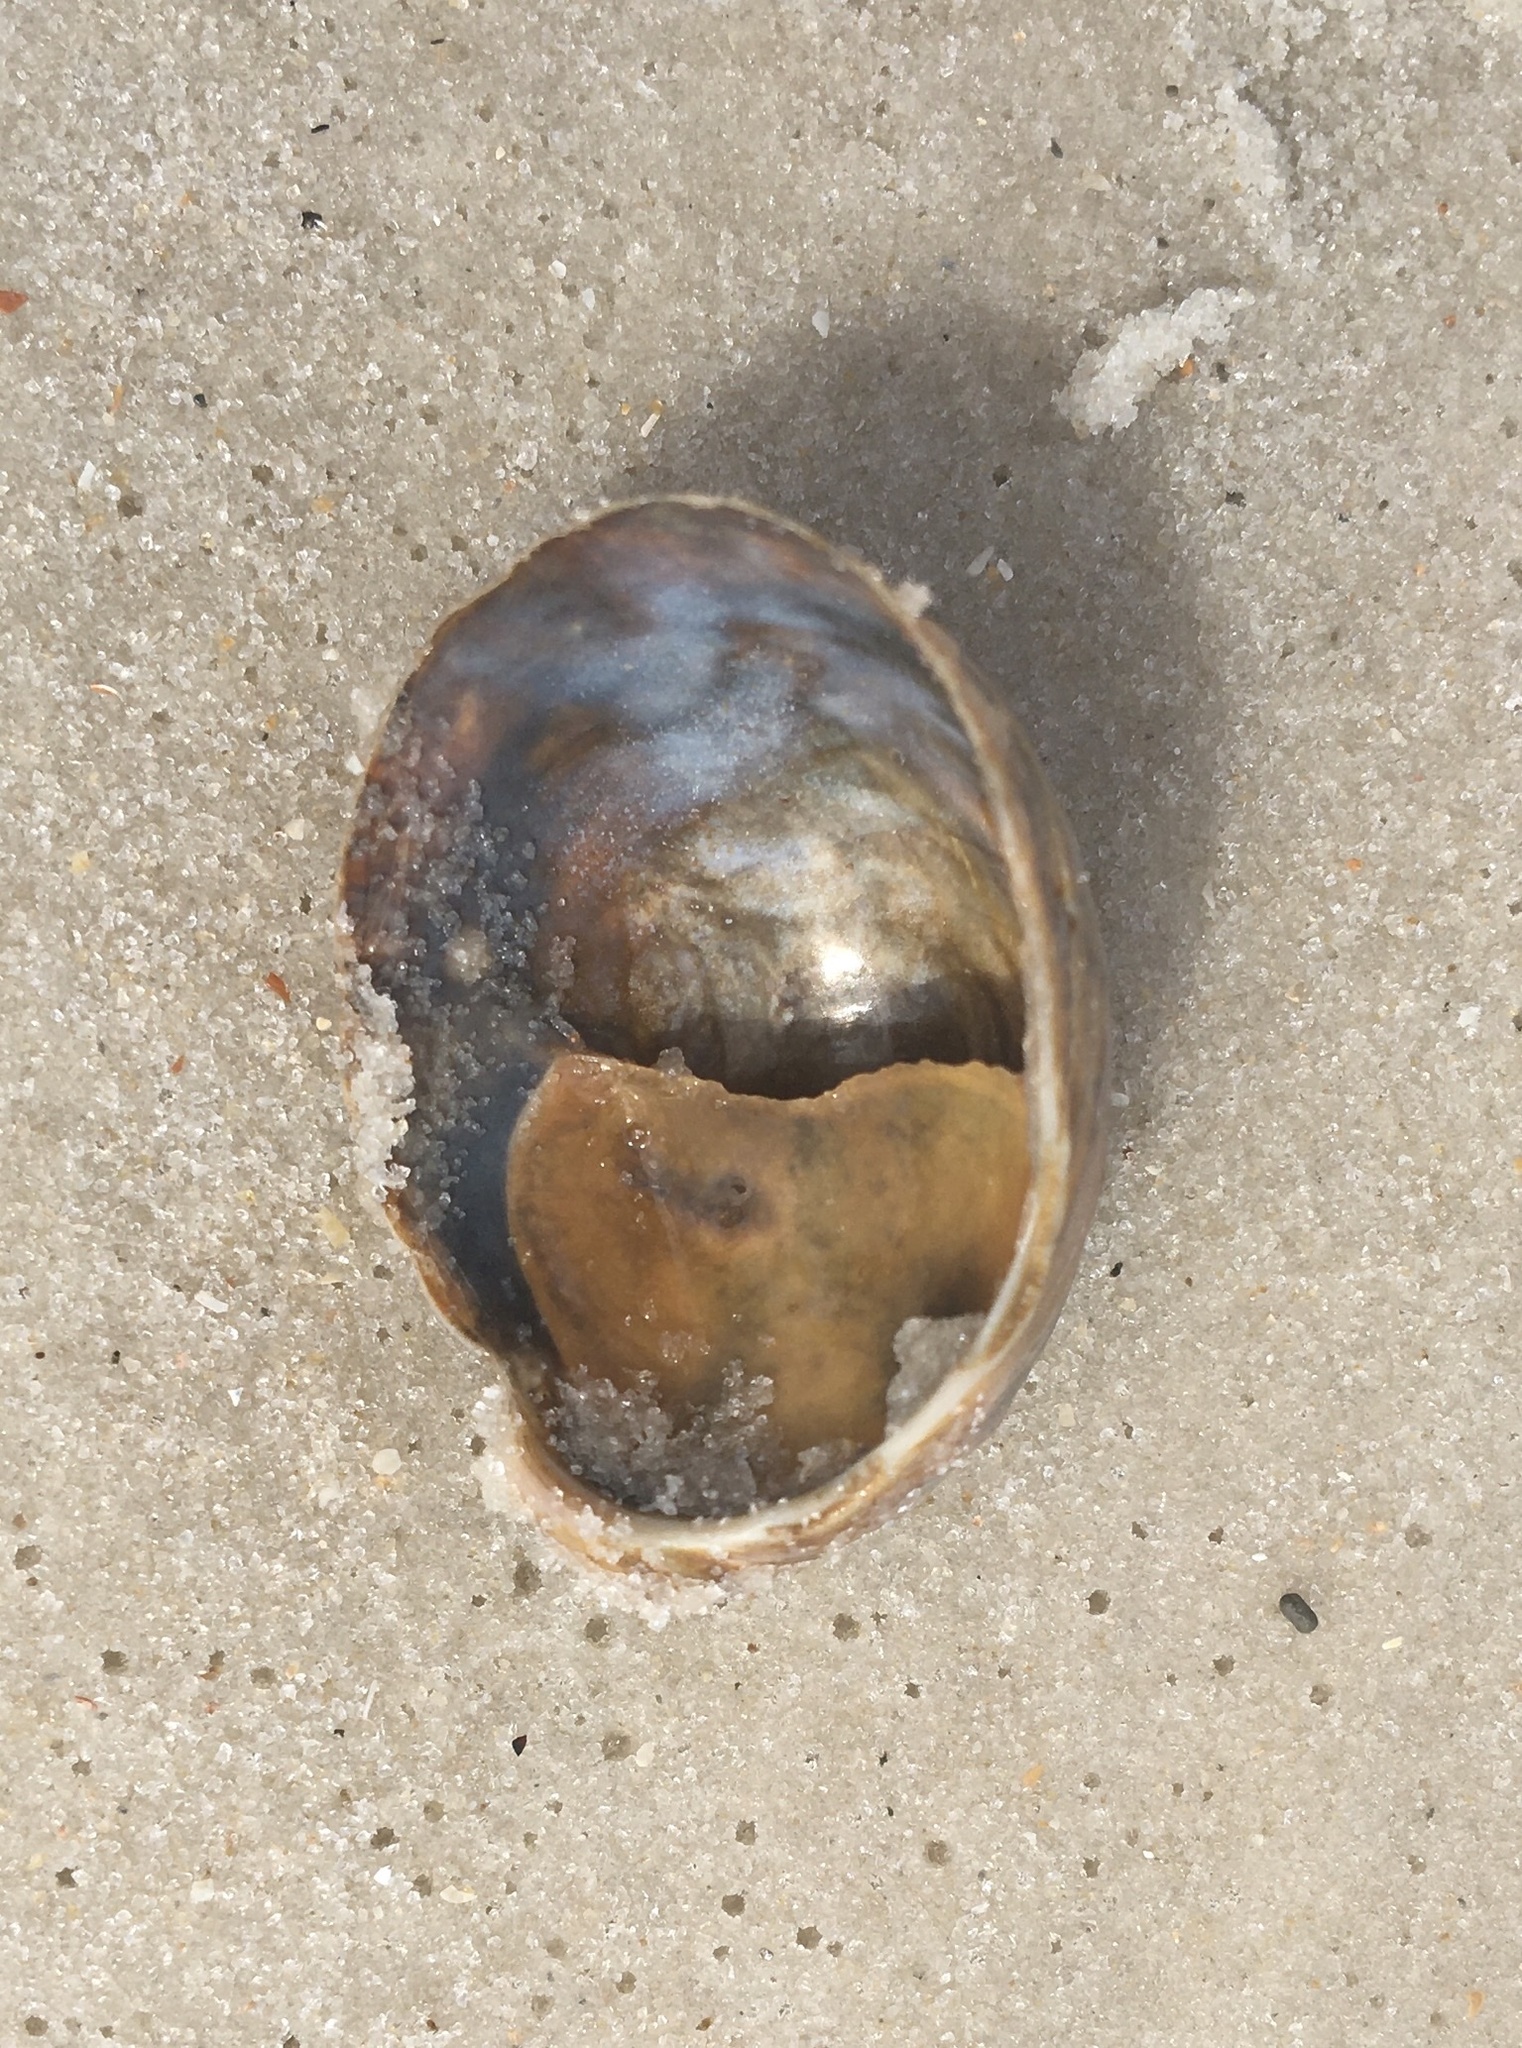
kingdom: Animalia
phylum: Mollusca
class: Gastropoda
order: Littorinimorpha
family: Calyptraeidae
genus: Crepidula
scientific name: Crepidula fornicata
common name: Slipper limpet
